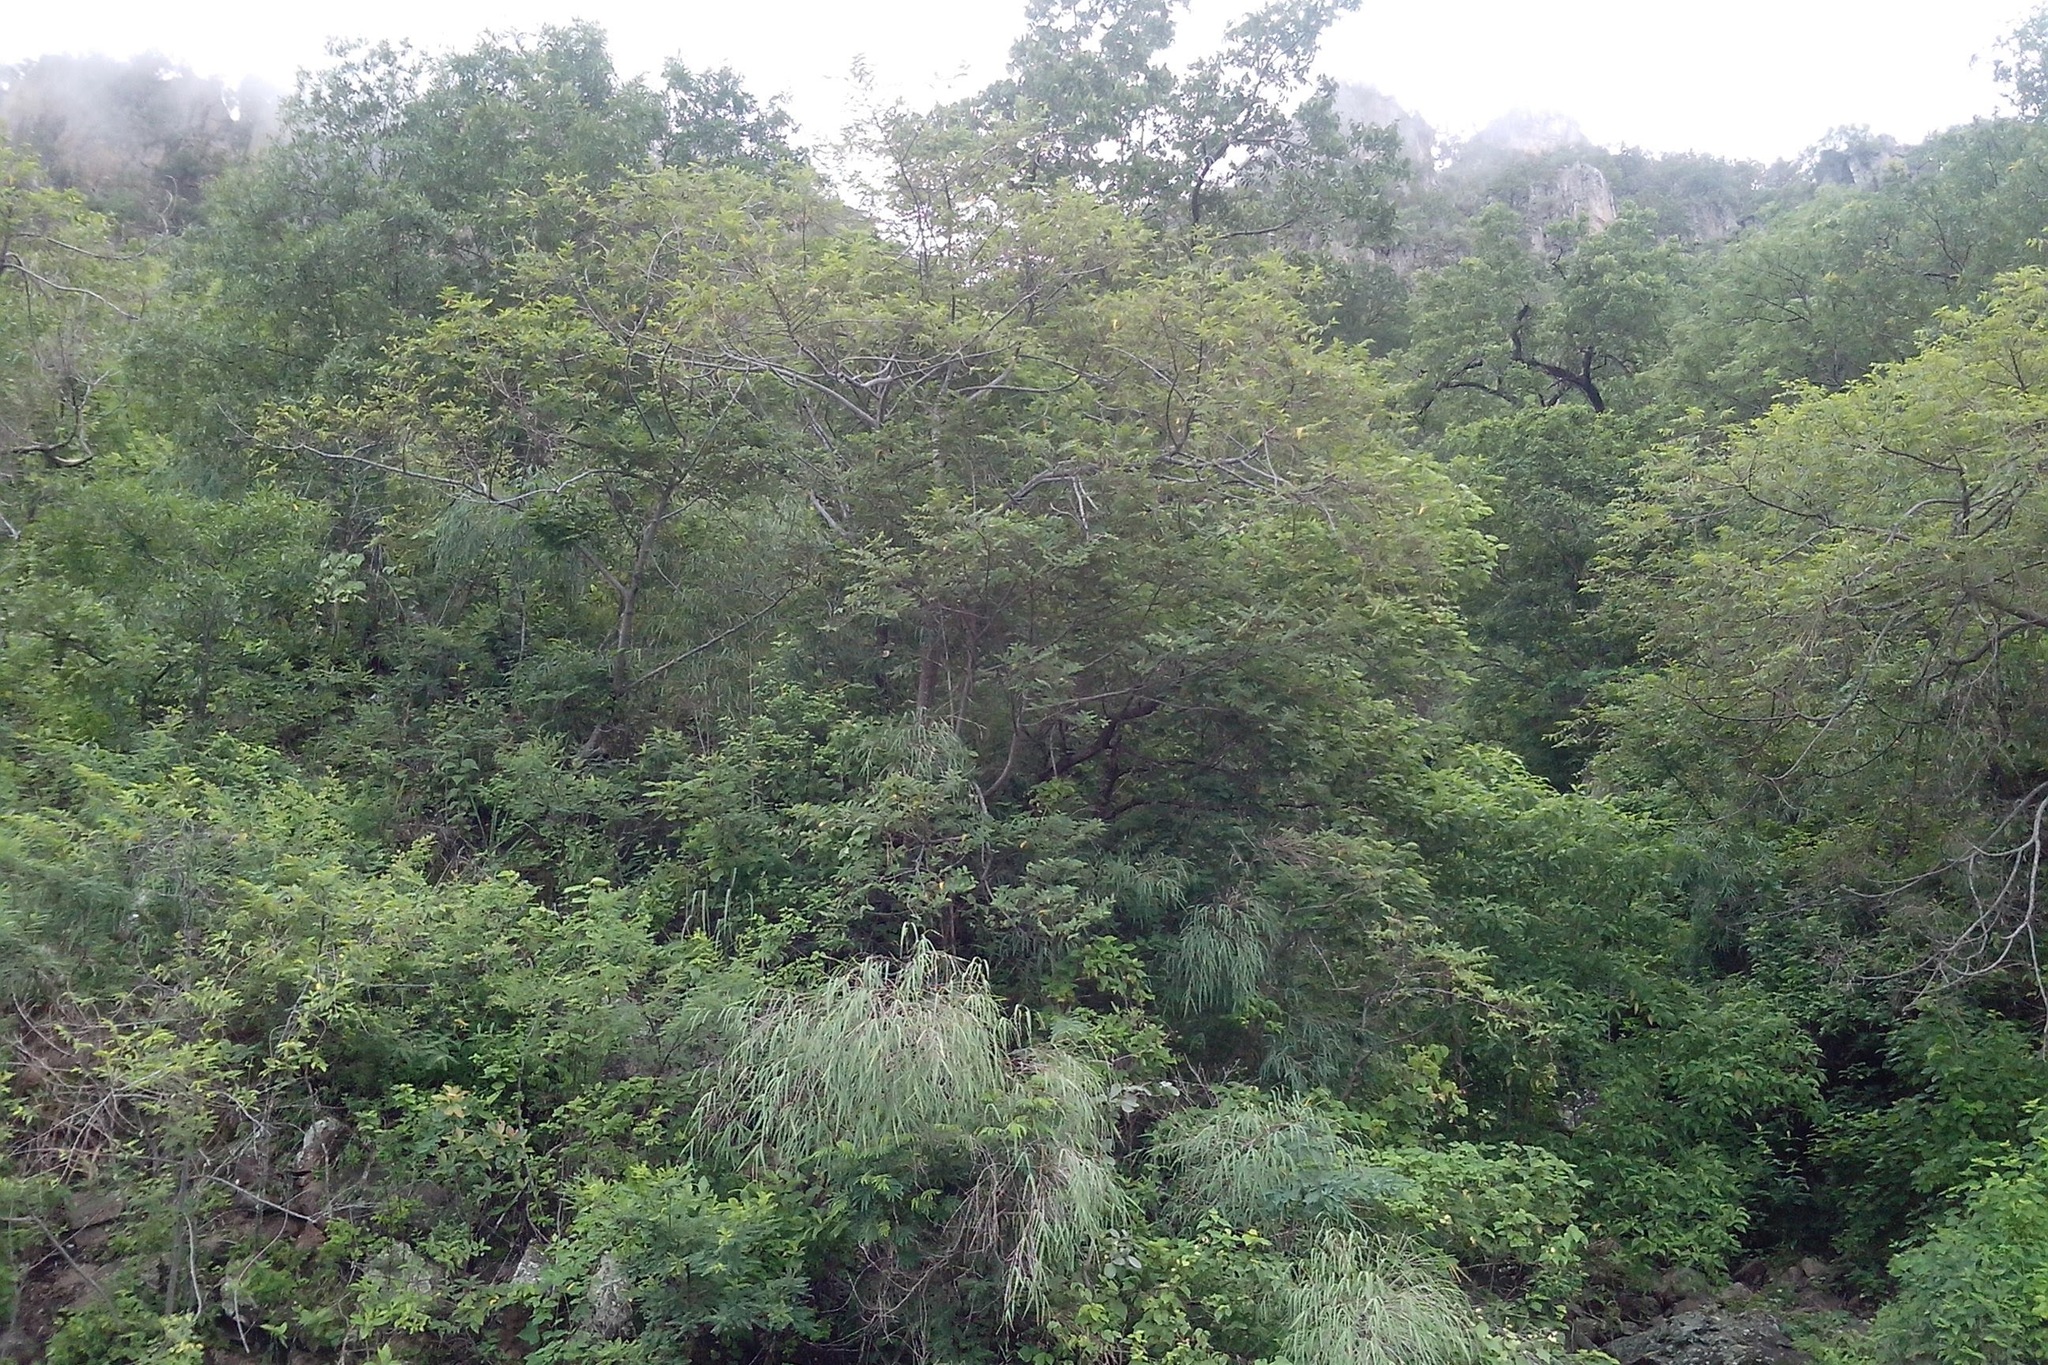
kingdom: Plantae
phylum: Tracheophyta
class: Liliopsida
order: Poales
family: Poaceae
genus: Otatea
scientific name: Otatea nayeeri
